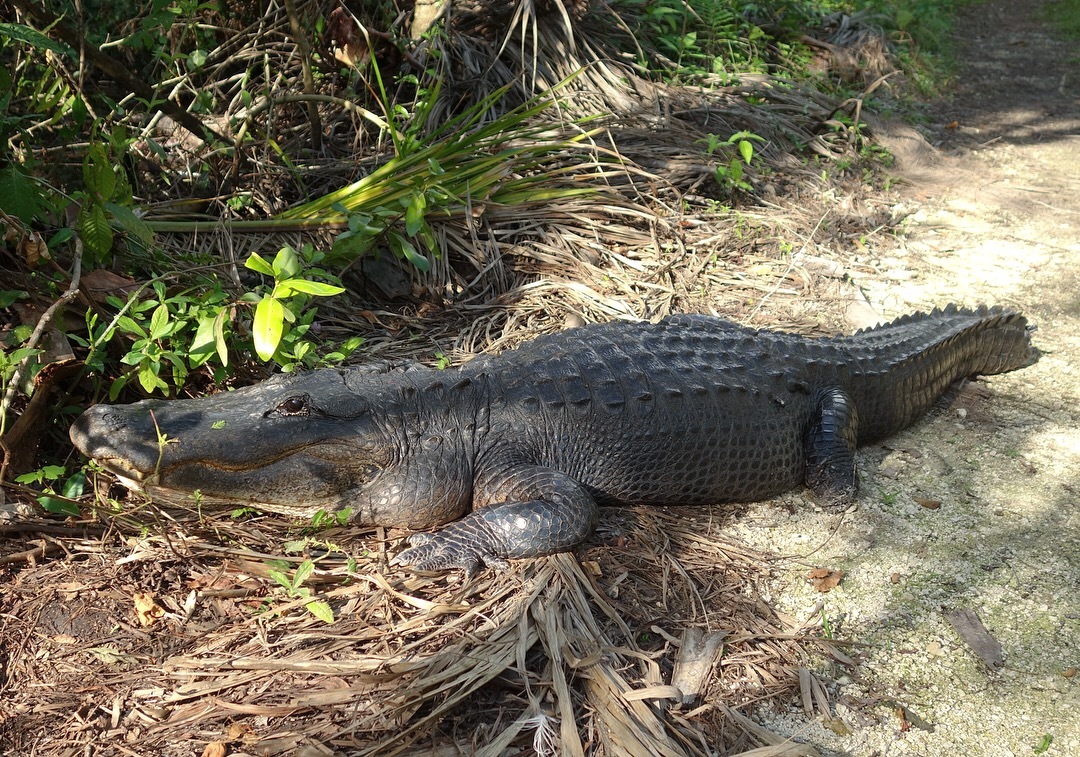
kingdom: Animalia
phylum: Chordata
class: Crocodylia
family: Alligatoridae
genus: Alligator
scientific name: Alligator mississippiensis
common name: American alligator
